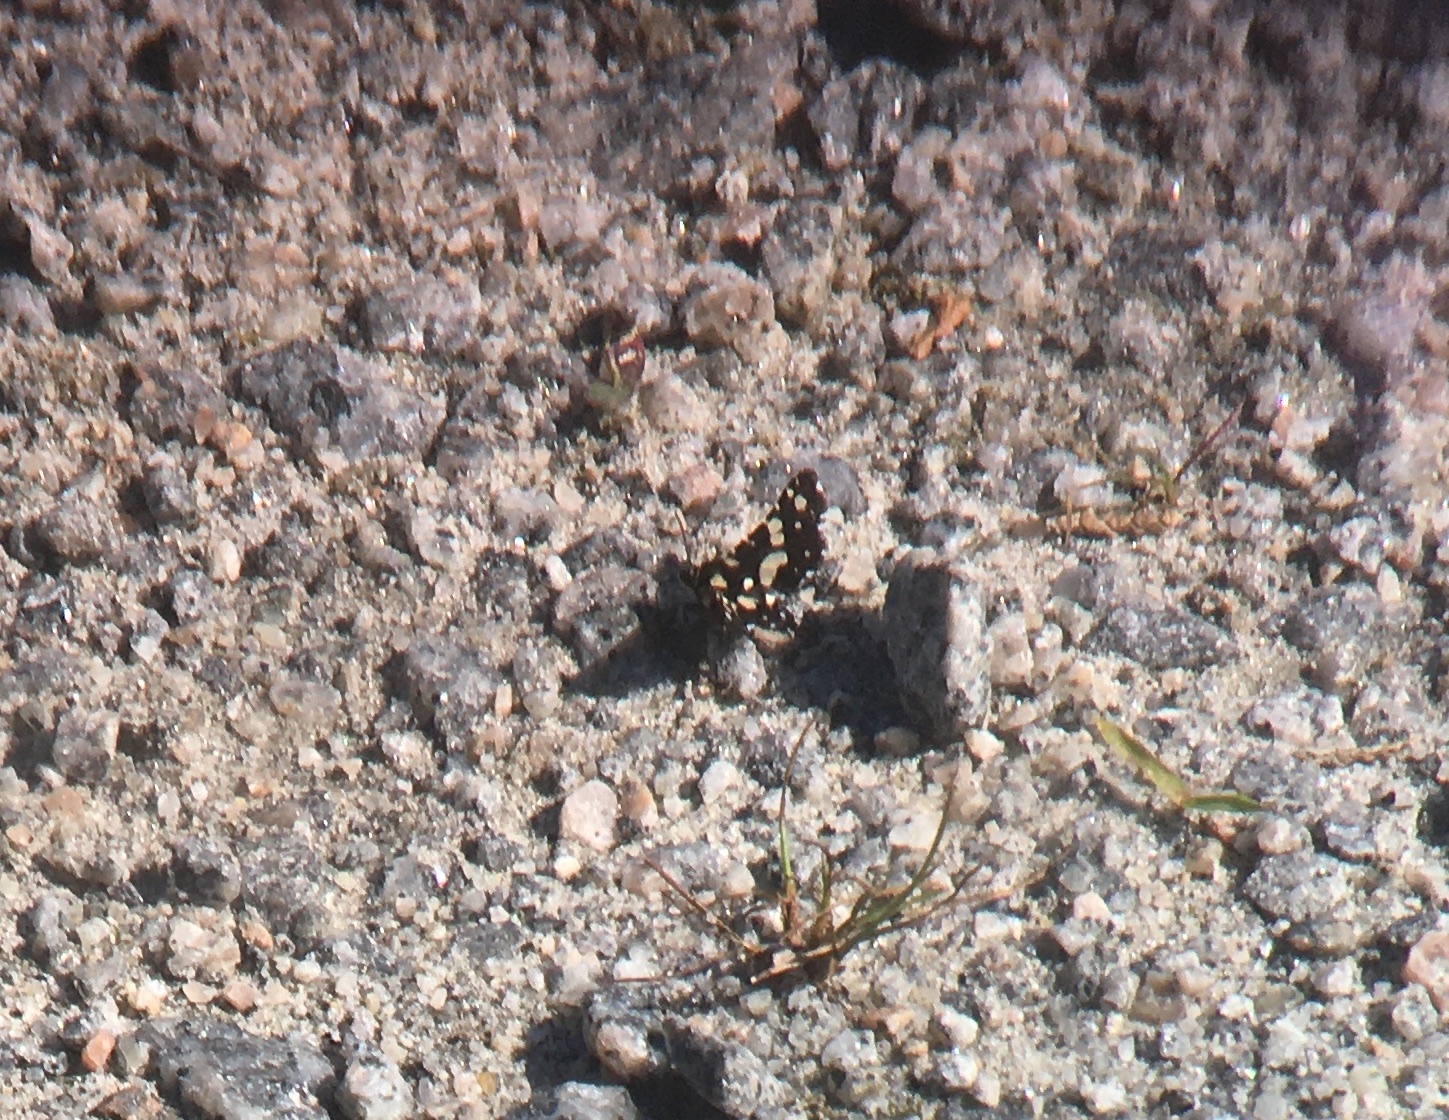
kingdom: Animalia
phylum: Arthropoda
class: Insecta
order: Lepidoptera
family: Thyrididae
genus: Pseudothyris
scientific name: Pseudothyris sepulchralis
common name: Mournful thyris moth
